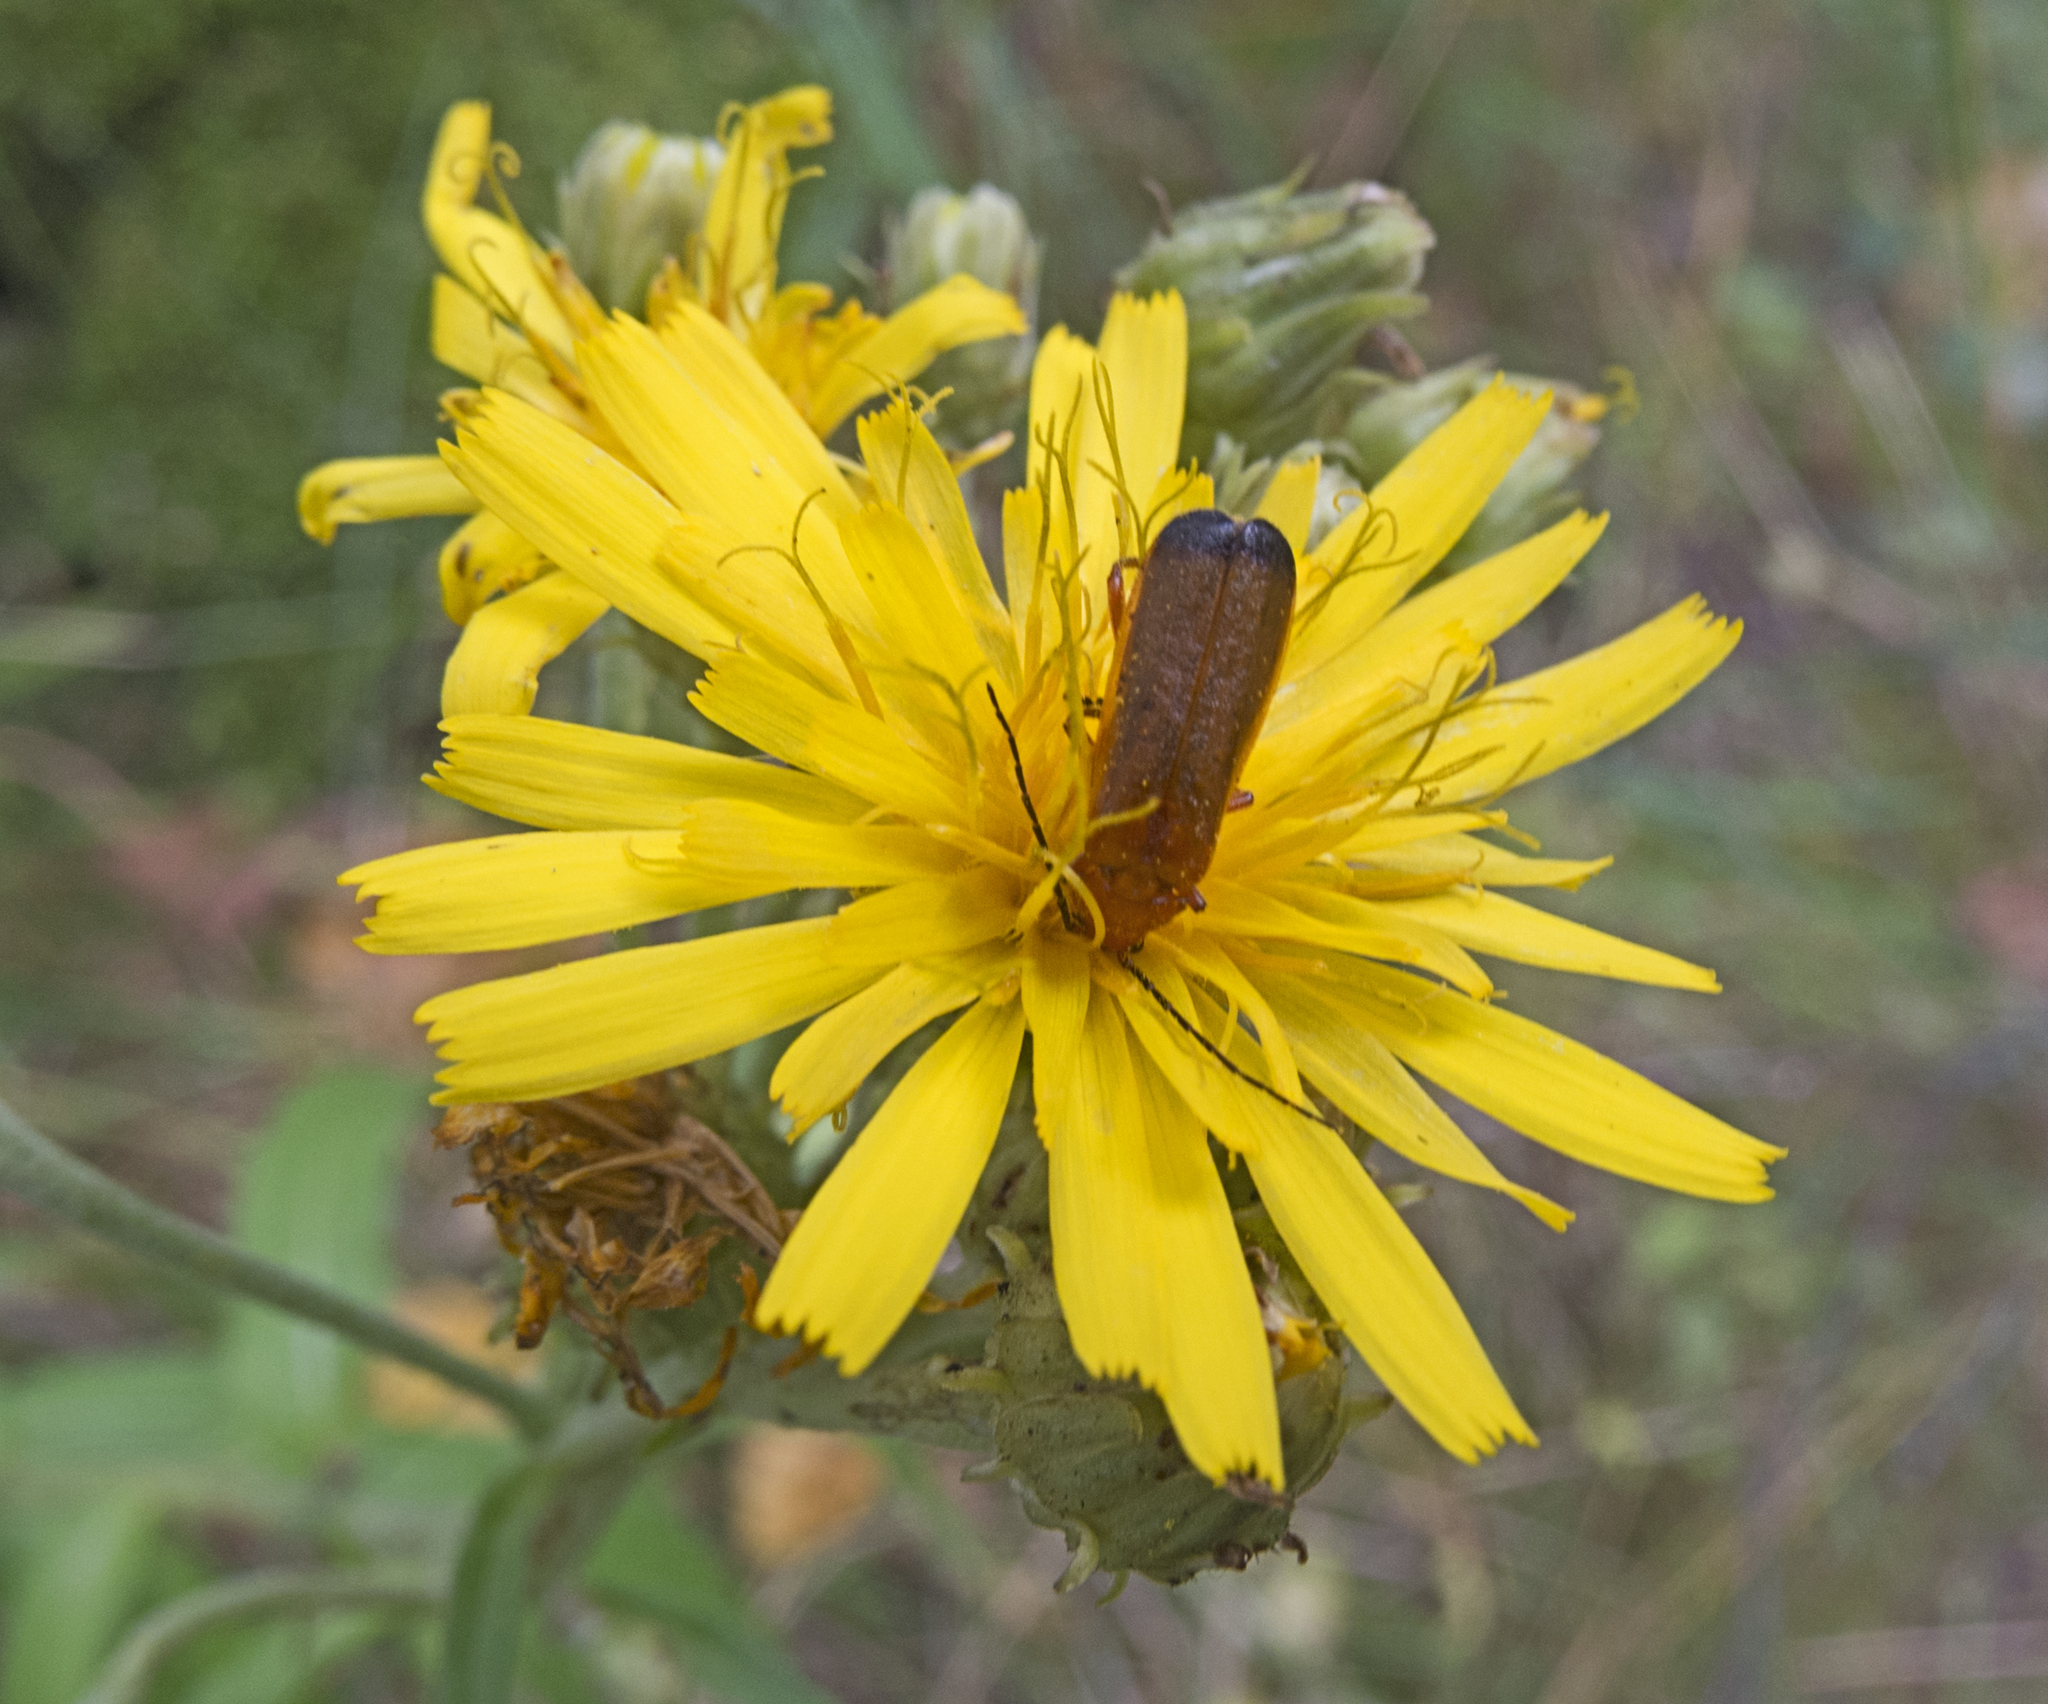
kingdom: Animalia
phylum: Arthropoda
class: Insecta
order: Coleoptera
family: Cantharidae
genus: Rhagonycha
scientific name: Rhagonycha fulva
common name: Common red soldier beetle
